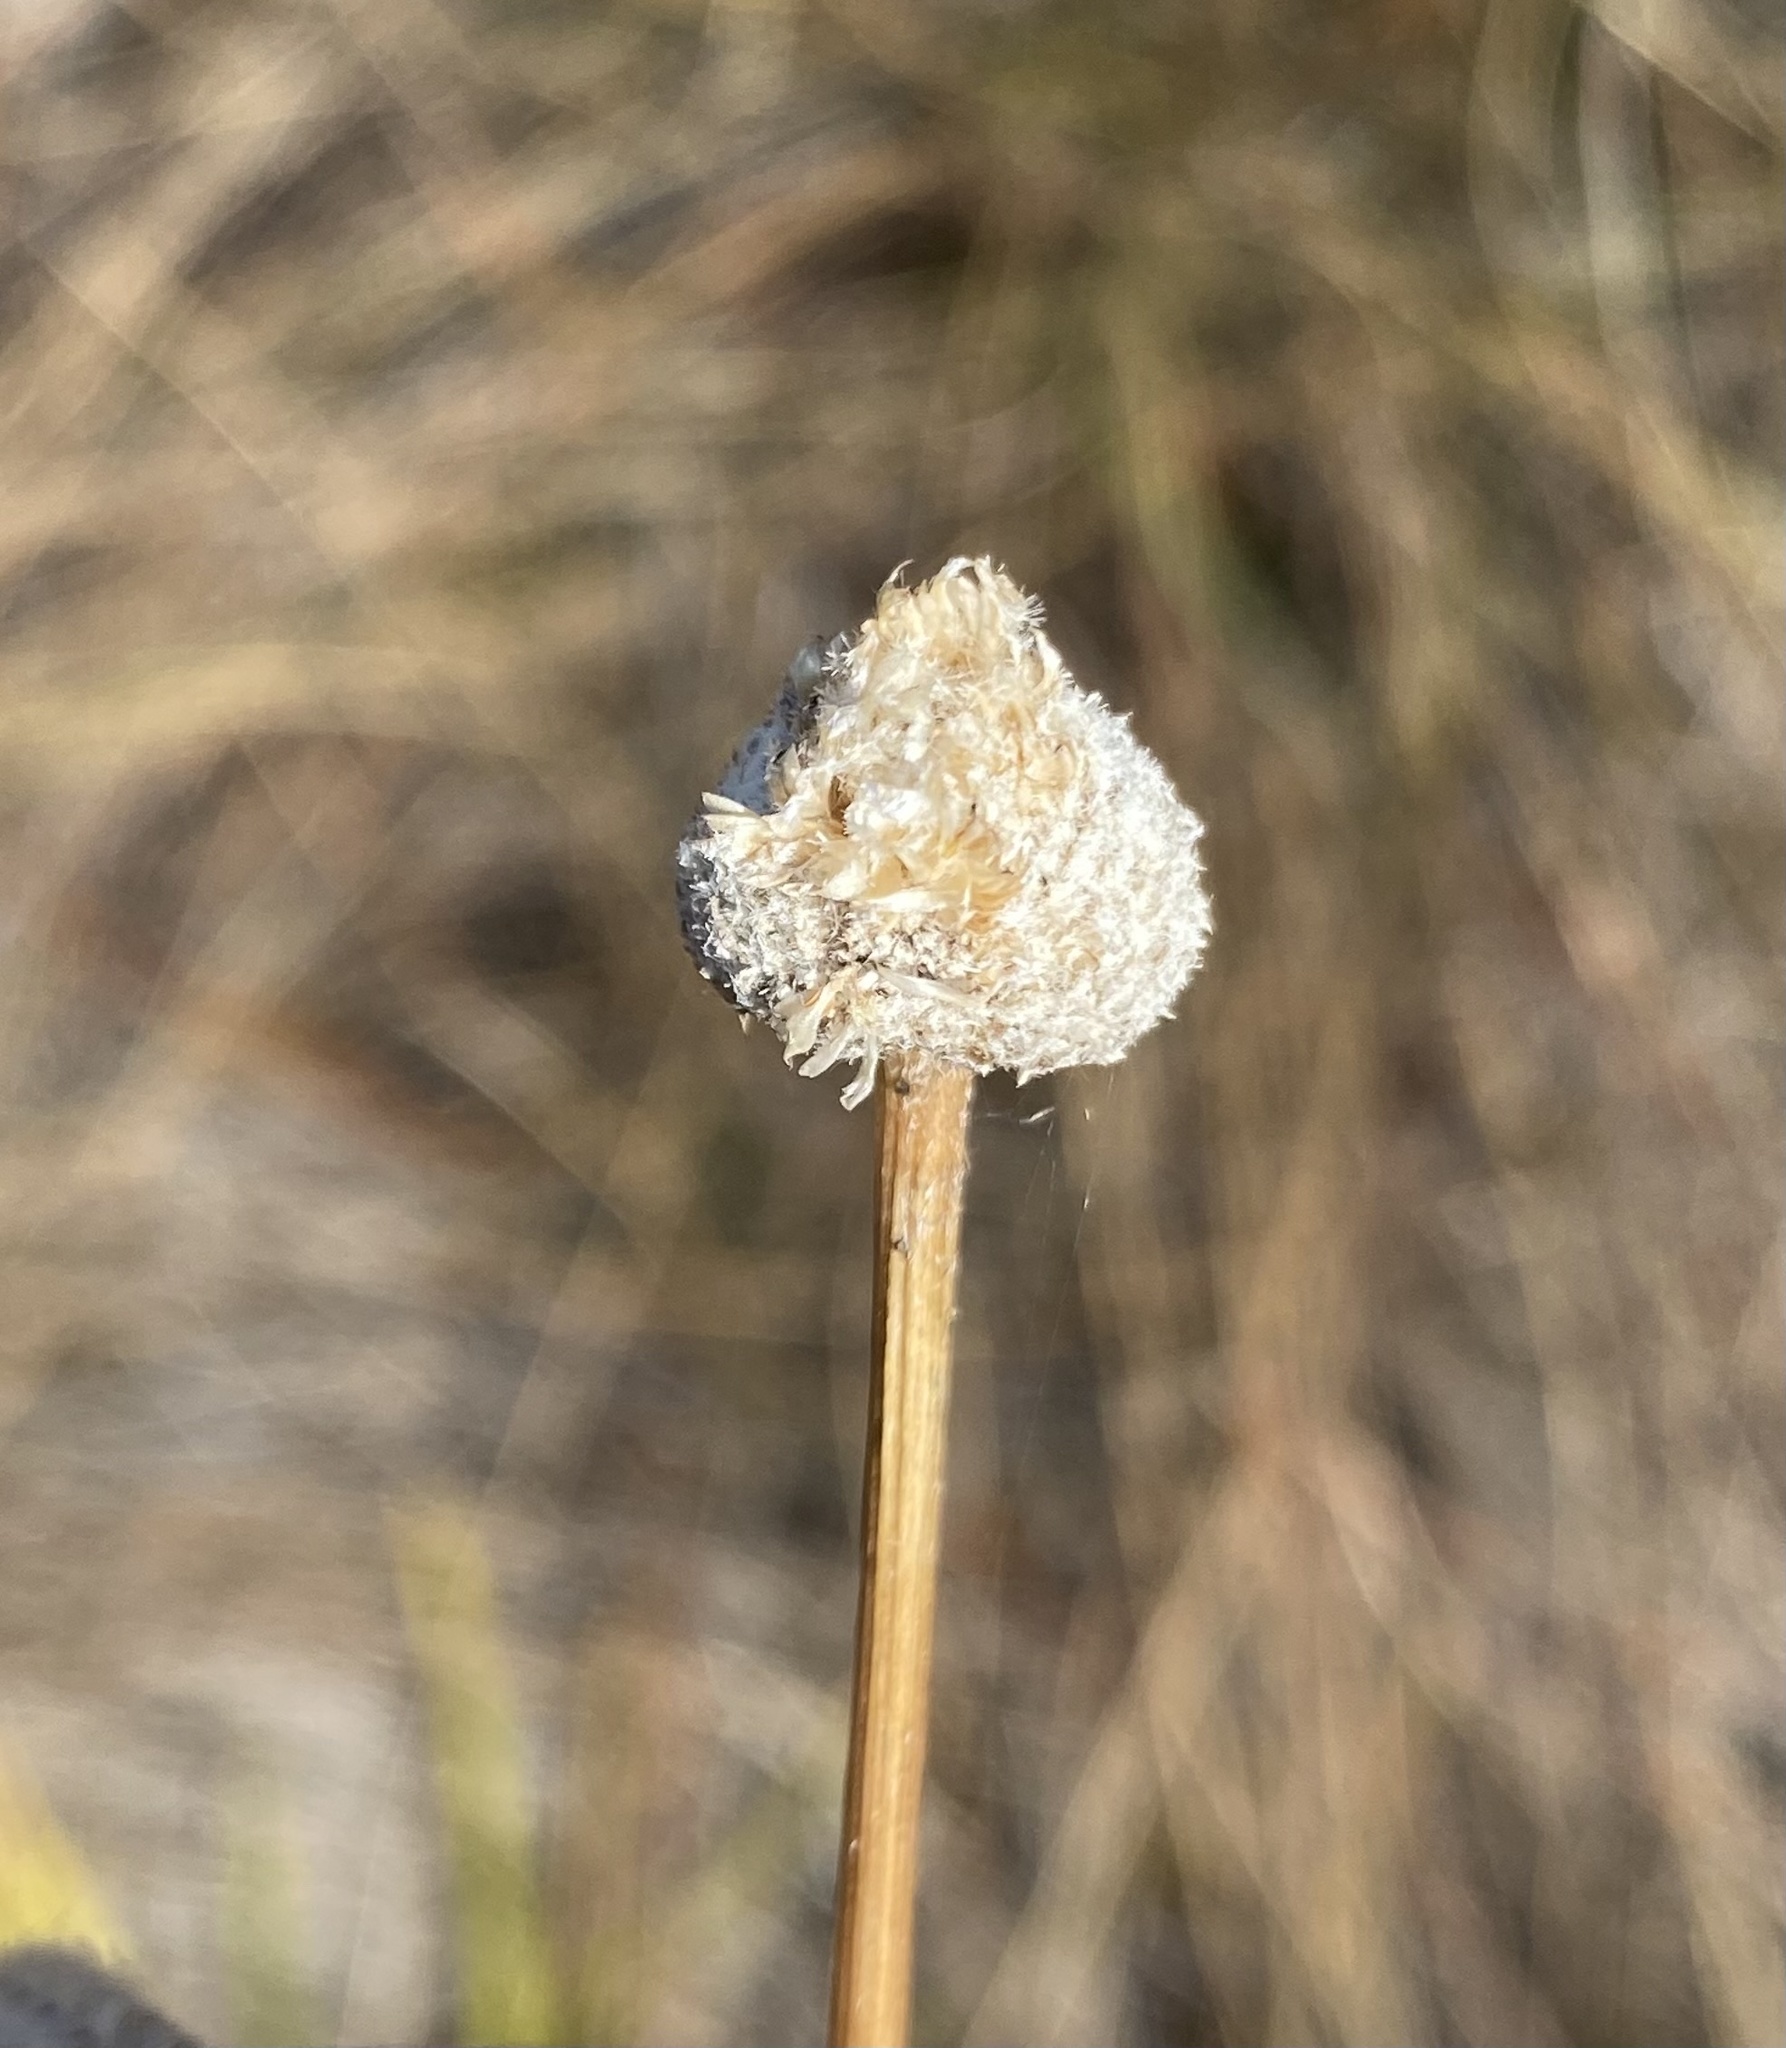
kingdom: Plantae
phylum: Tracheophyta
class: Liliopsida
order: Poales
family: Eriocaulaceae
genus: Eriocaulon
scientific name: Eriocaulon decangulare
